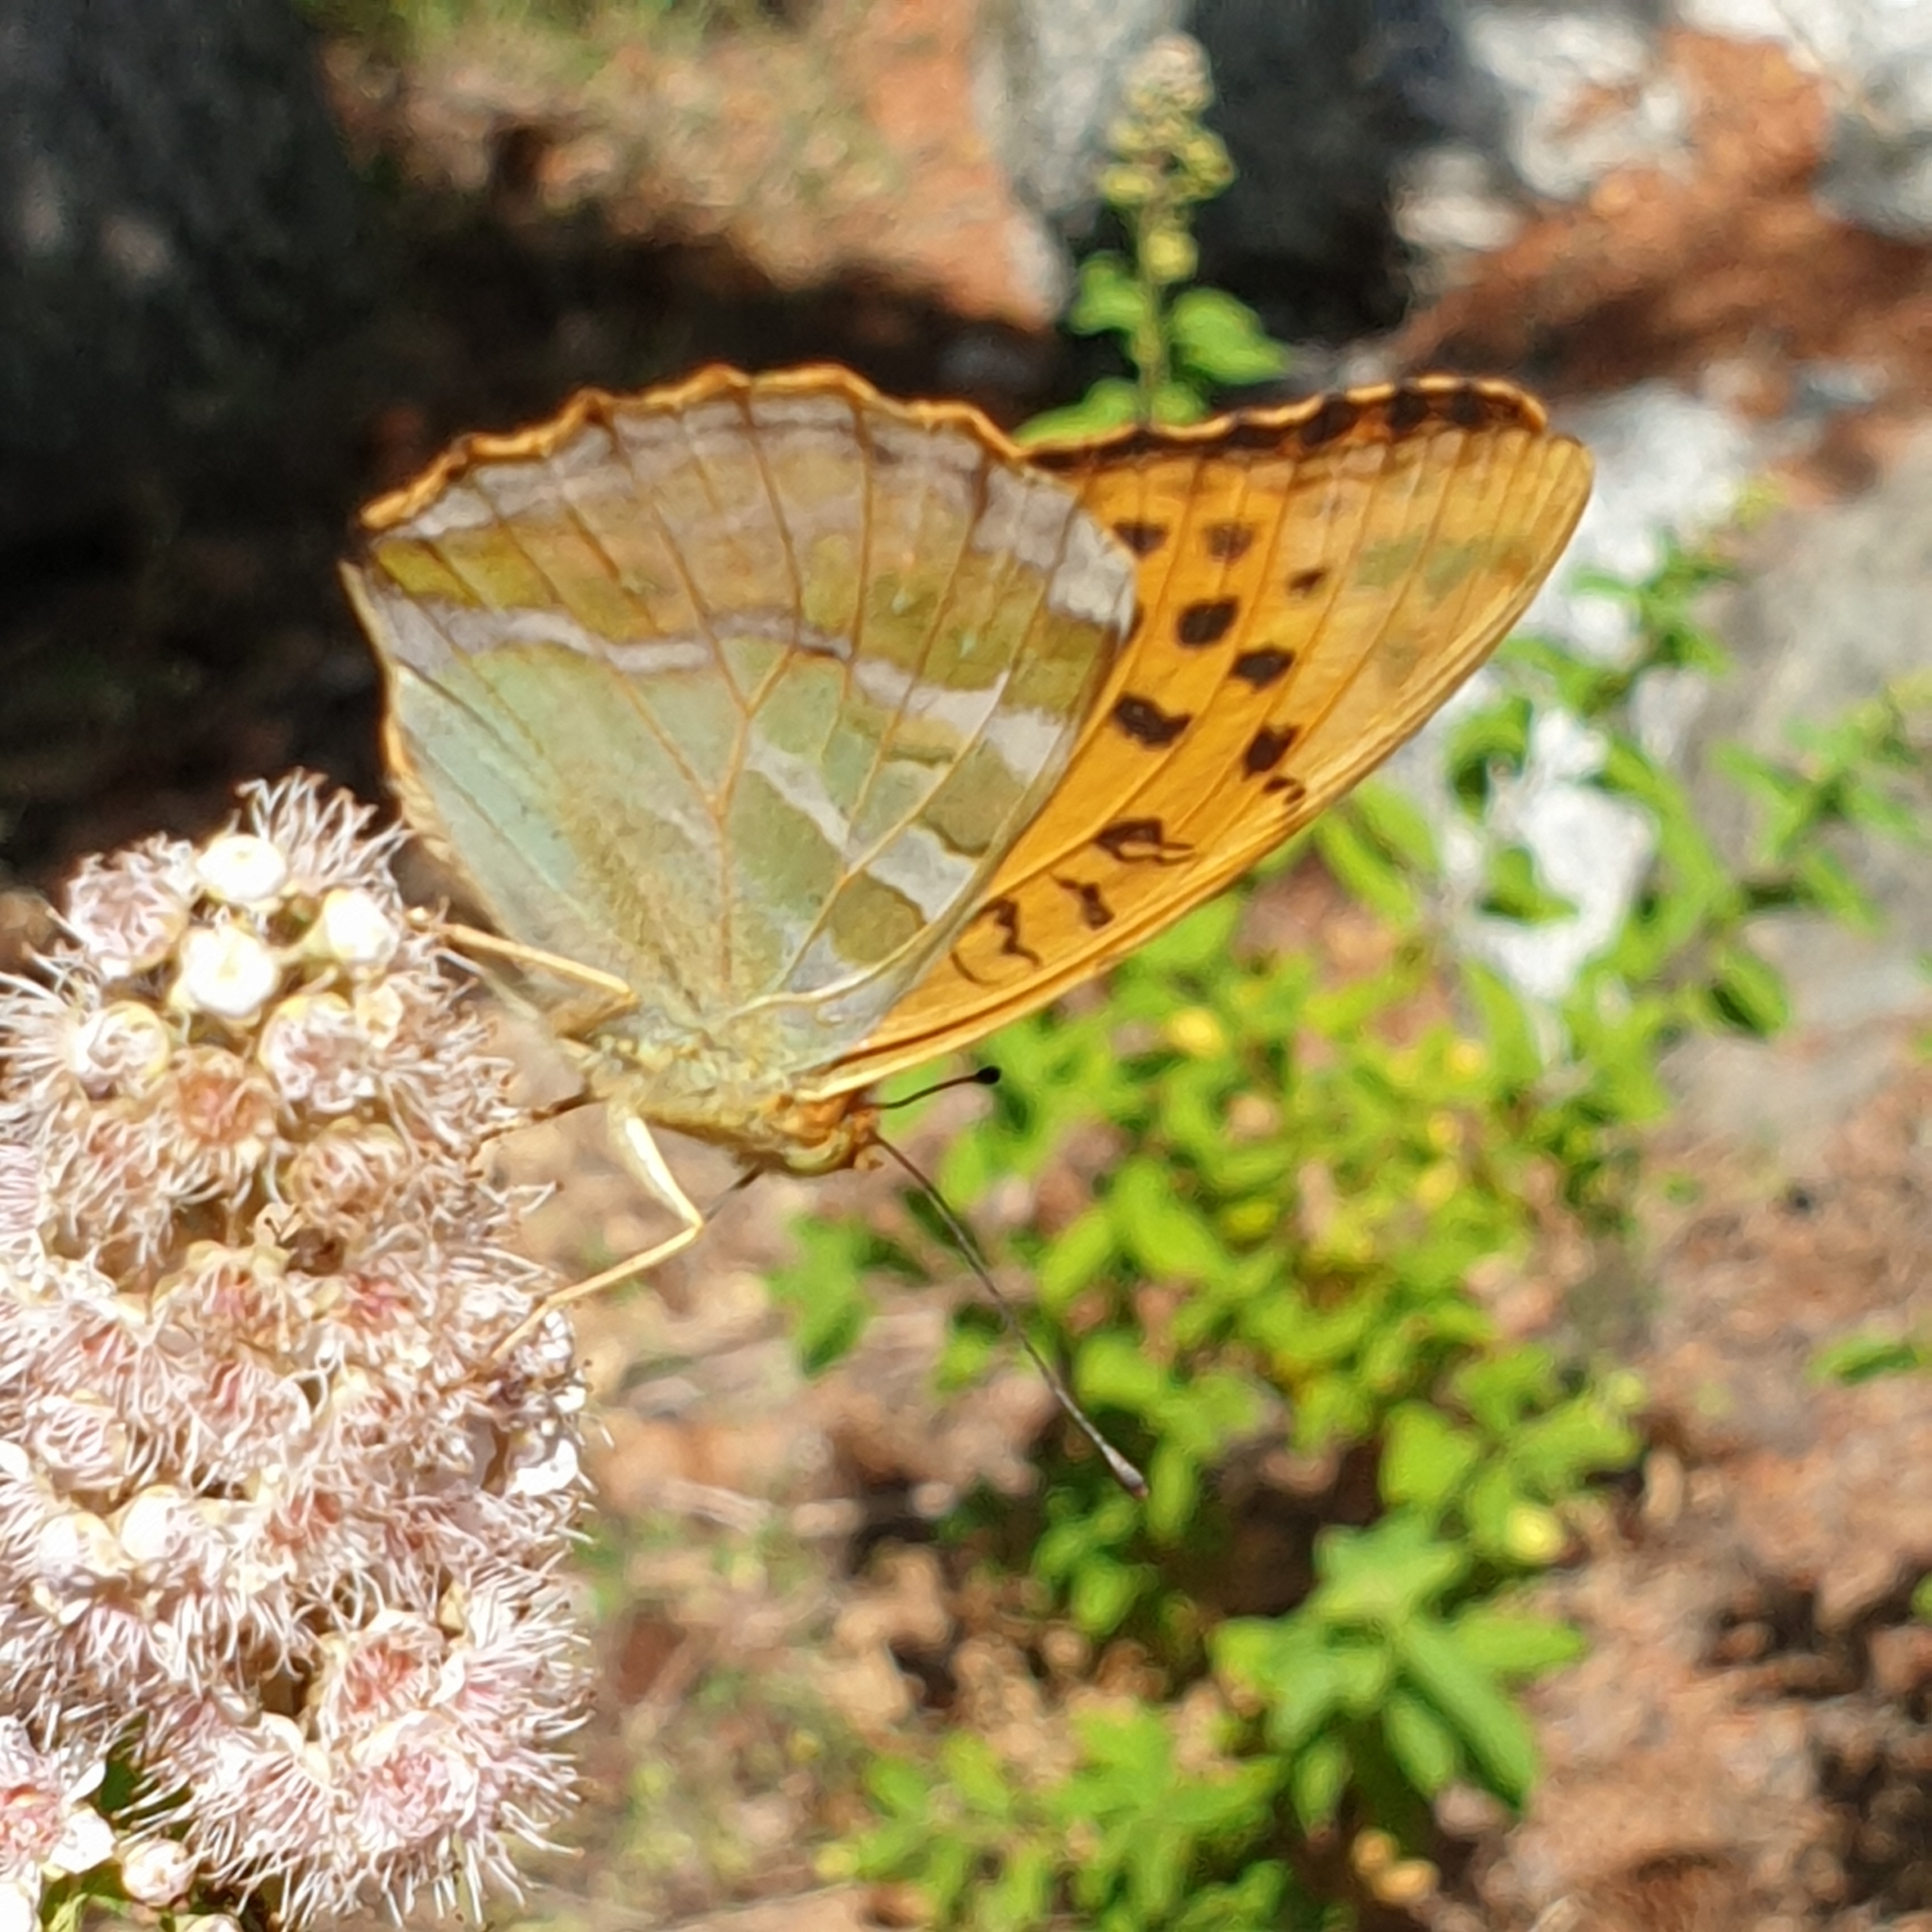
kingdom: Animalia
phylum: Arthropoda
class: Insecta
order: Lepidoptera
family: Nymphalidae
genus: Argynnis
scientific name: Argynnis paphia
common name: Silver-washed fritillary
